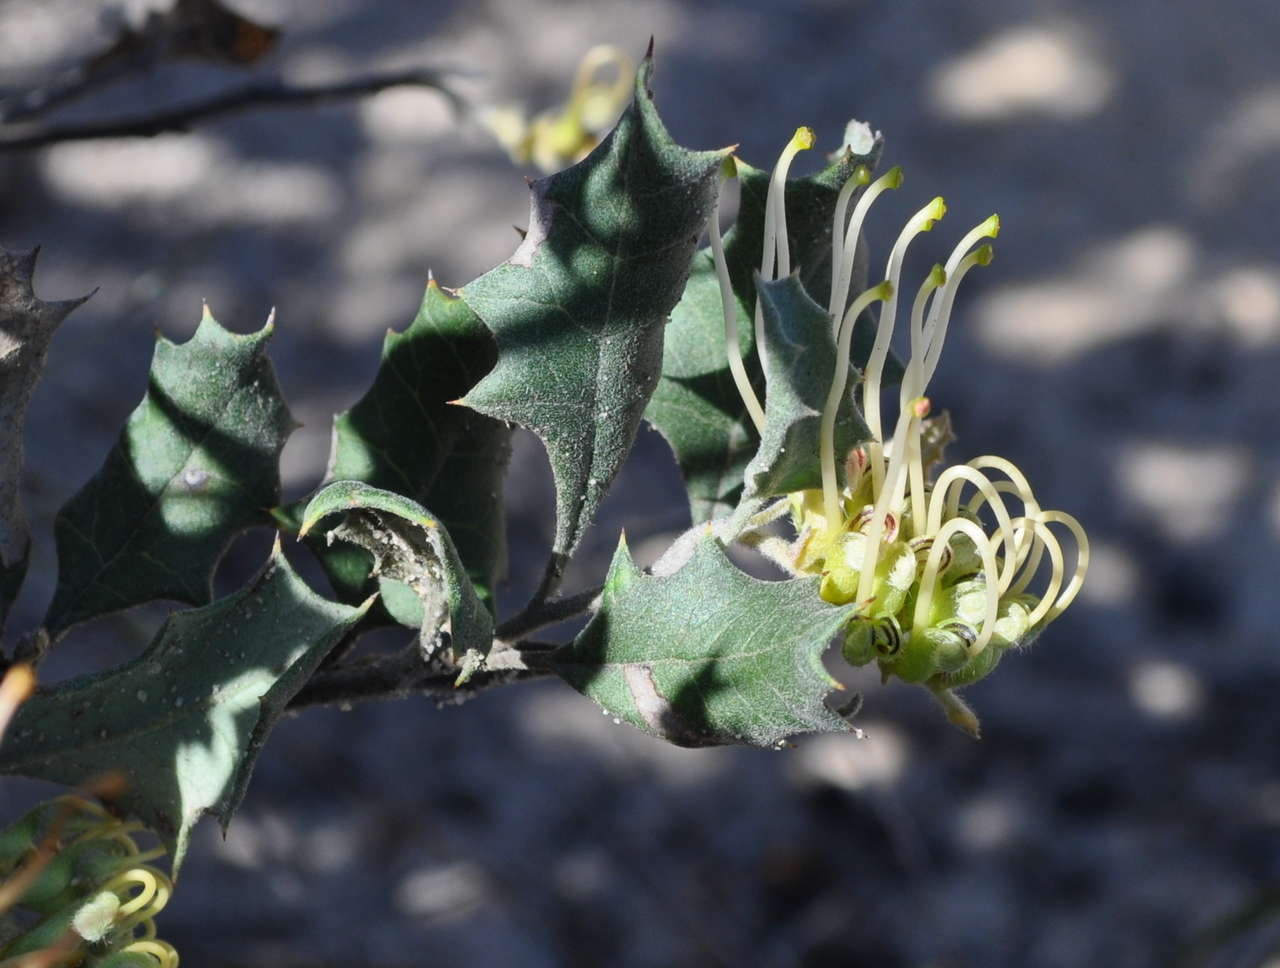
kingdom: Plantae
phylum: Tracheophyta
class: Magnoliopsida
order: Proteales
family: Proteaceae
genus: Grevillea
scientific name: Grevillea aquifolium
